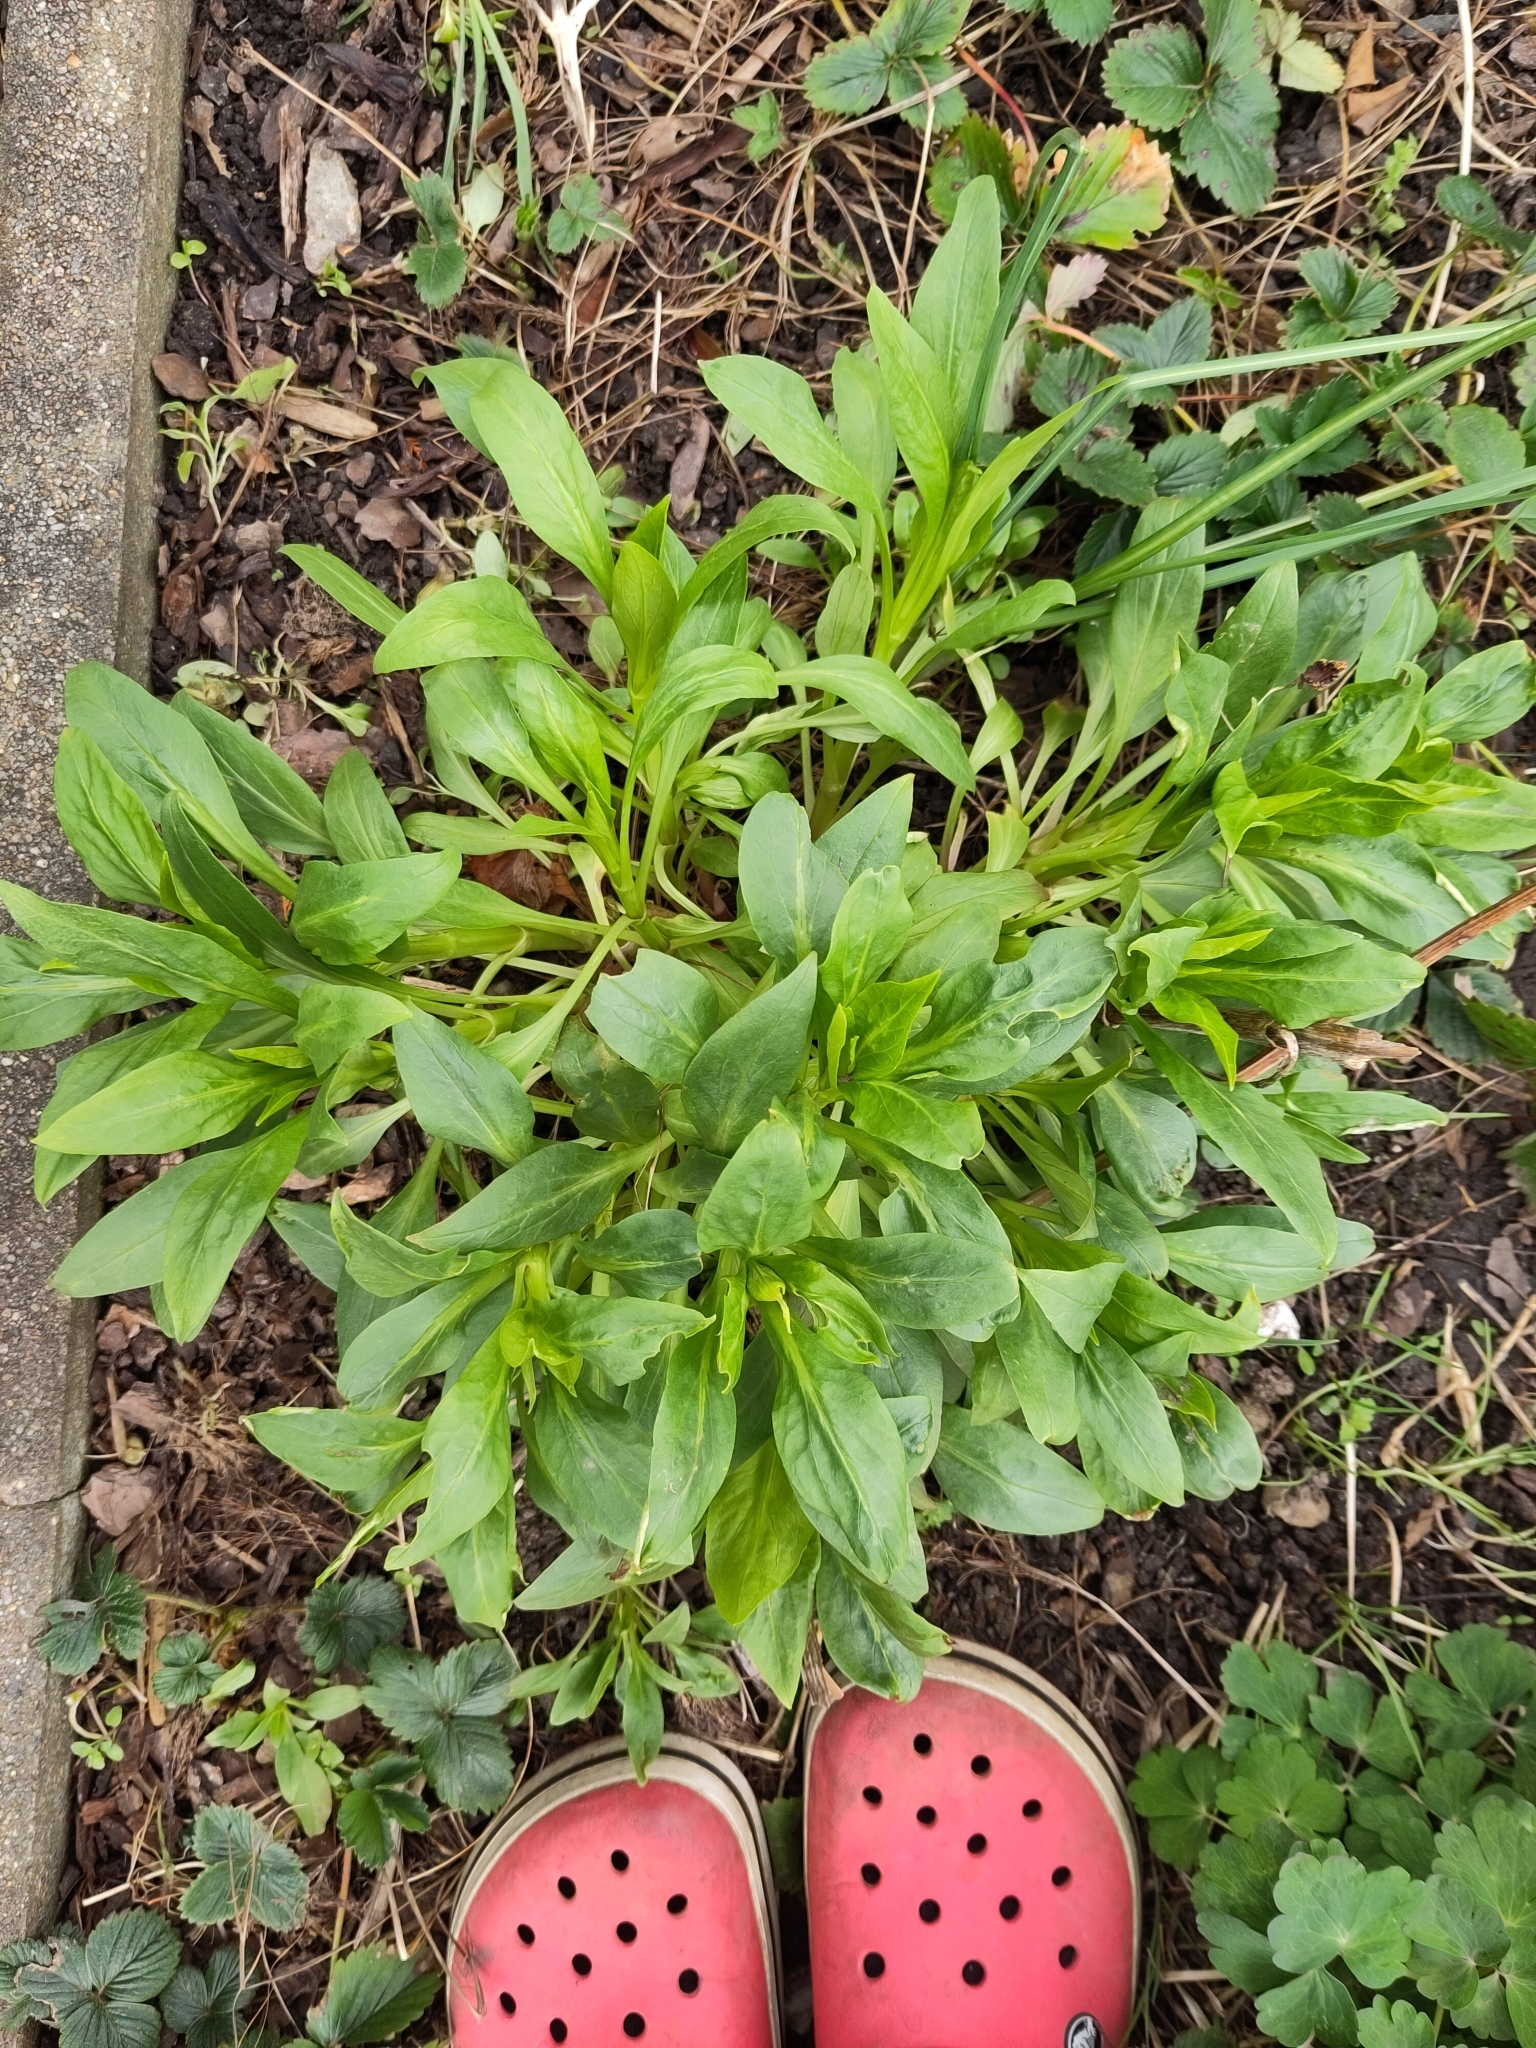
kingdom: Plantae
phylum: Tracheophyta
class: Magnoliopsida
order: Dipsacales
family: Caprifoliaceae
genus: Centranthus
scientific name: Centranthus ruber
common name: Red valerian
